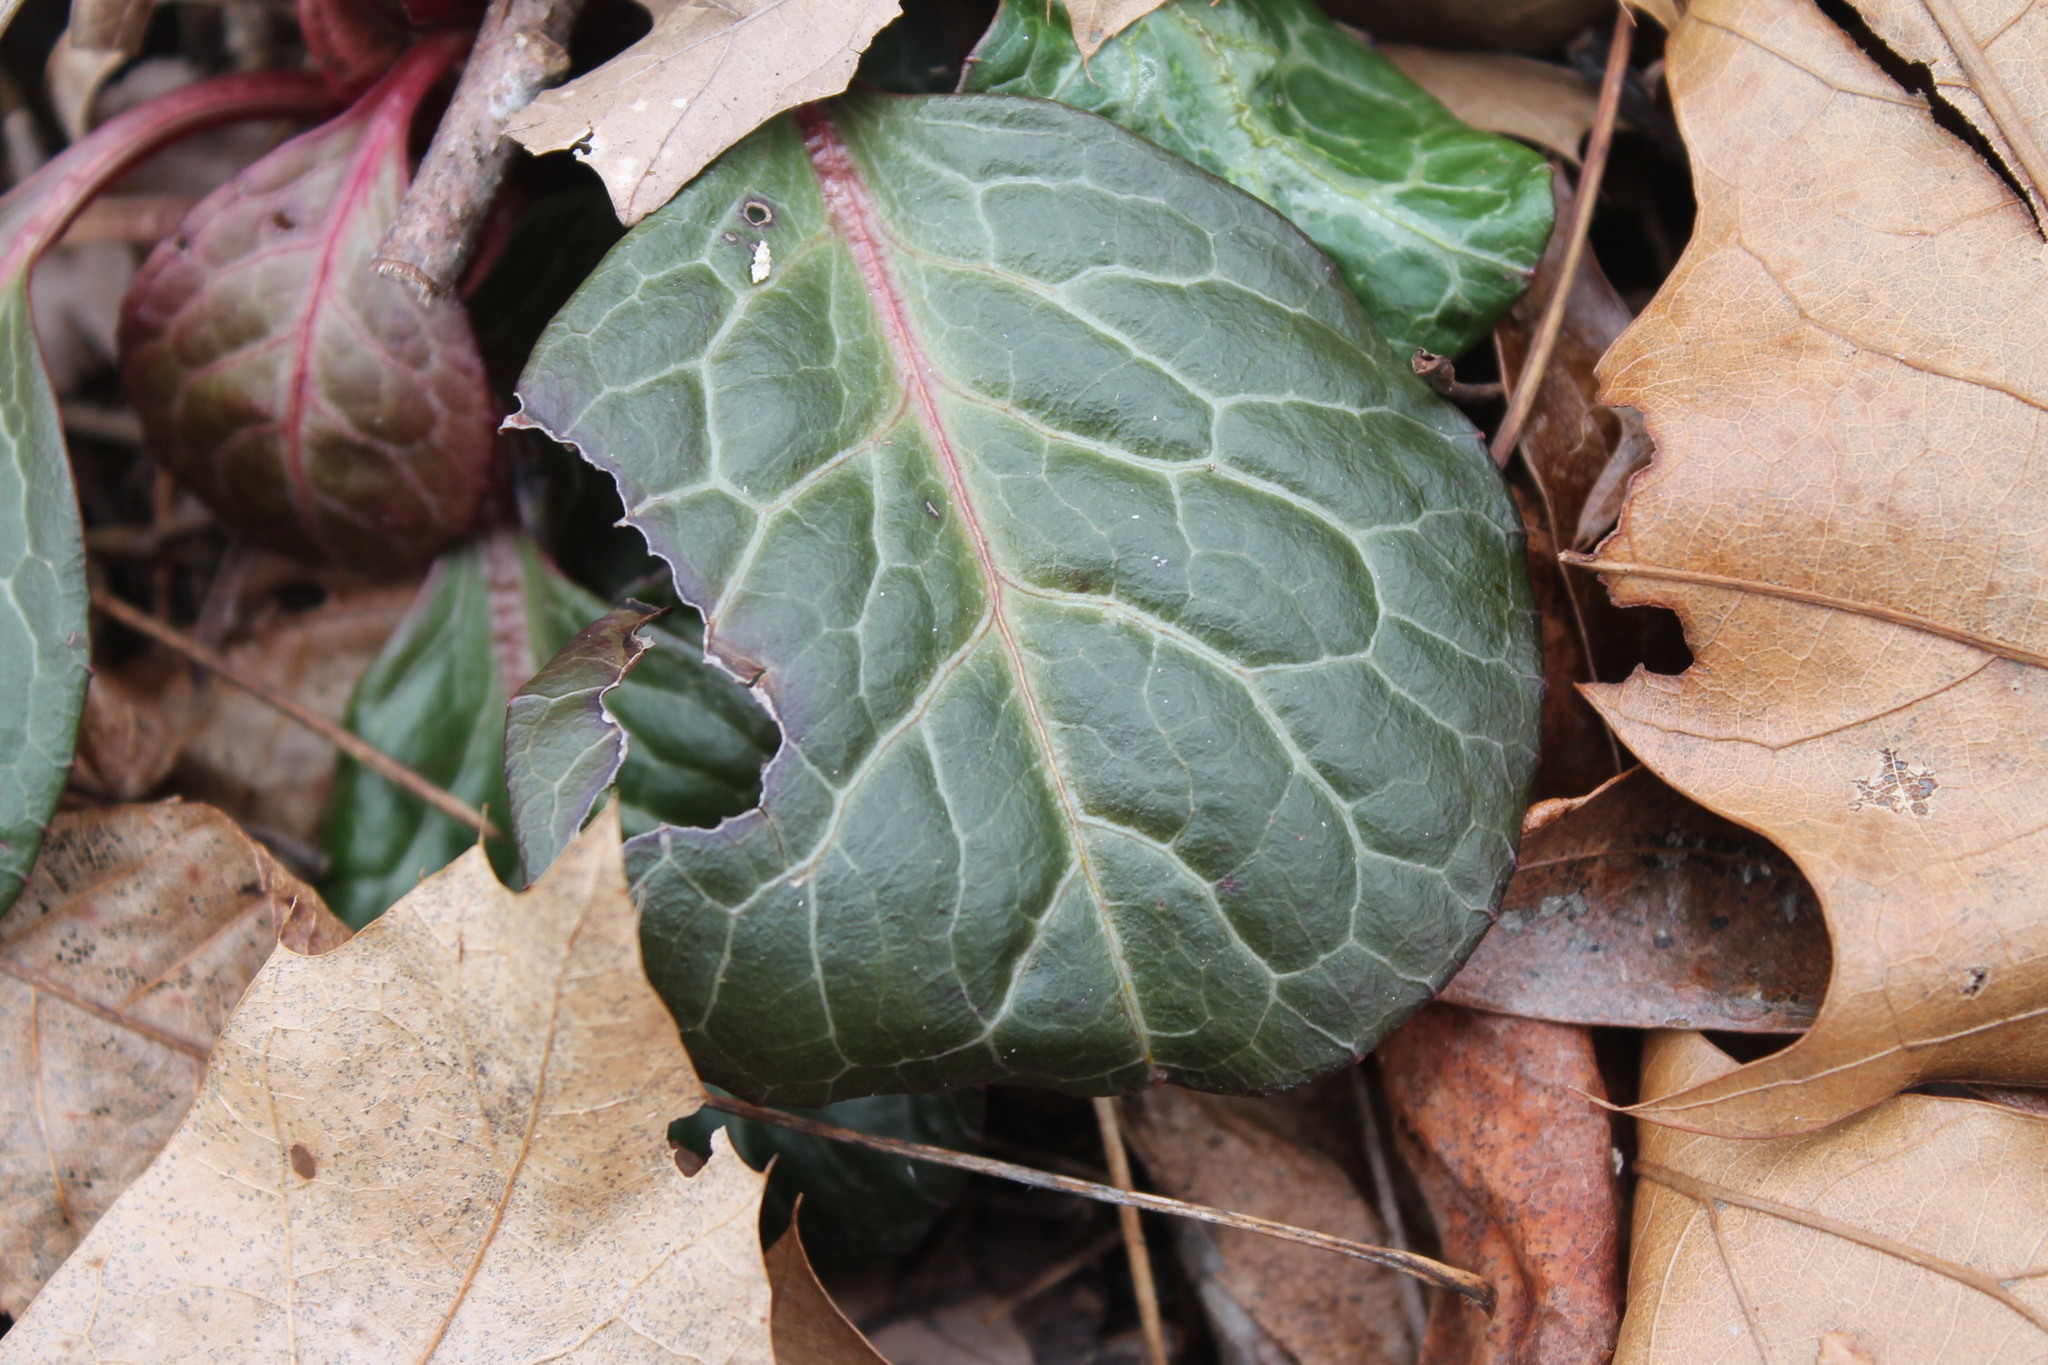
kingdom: Plantae
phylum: Tracheophyta
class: Magnoliopsida
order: Ericales
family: Ericaceae
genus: Pyrola
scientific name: Pyrola americana
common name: American wintergreen
